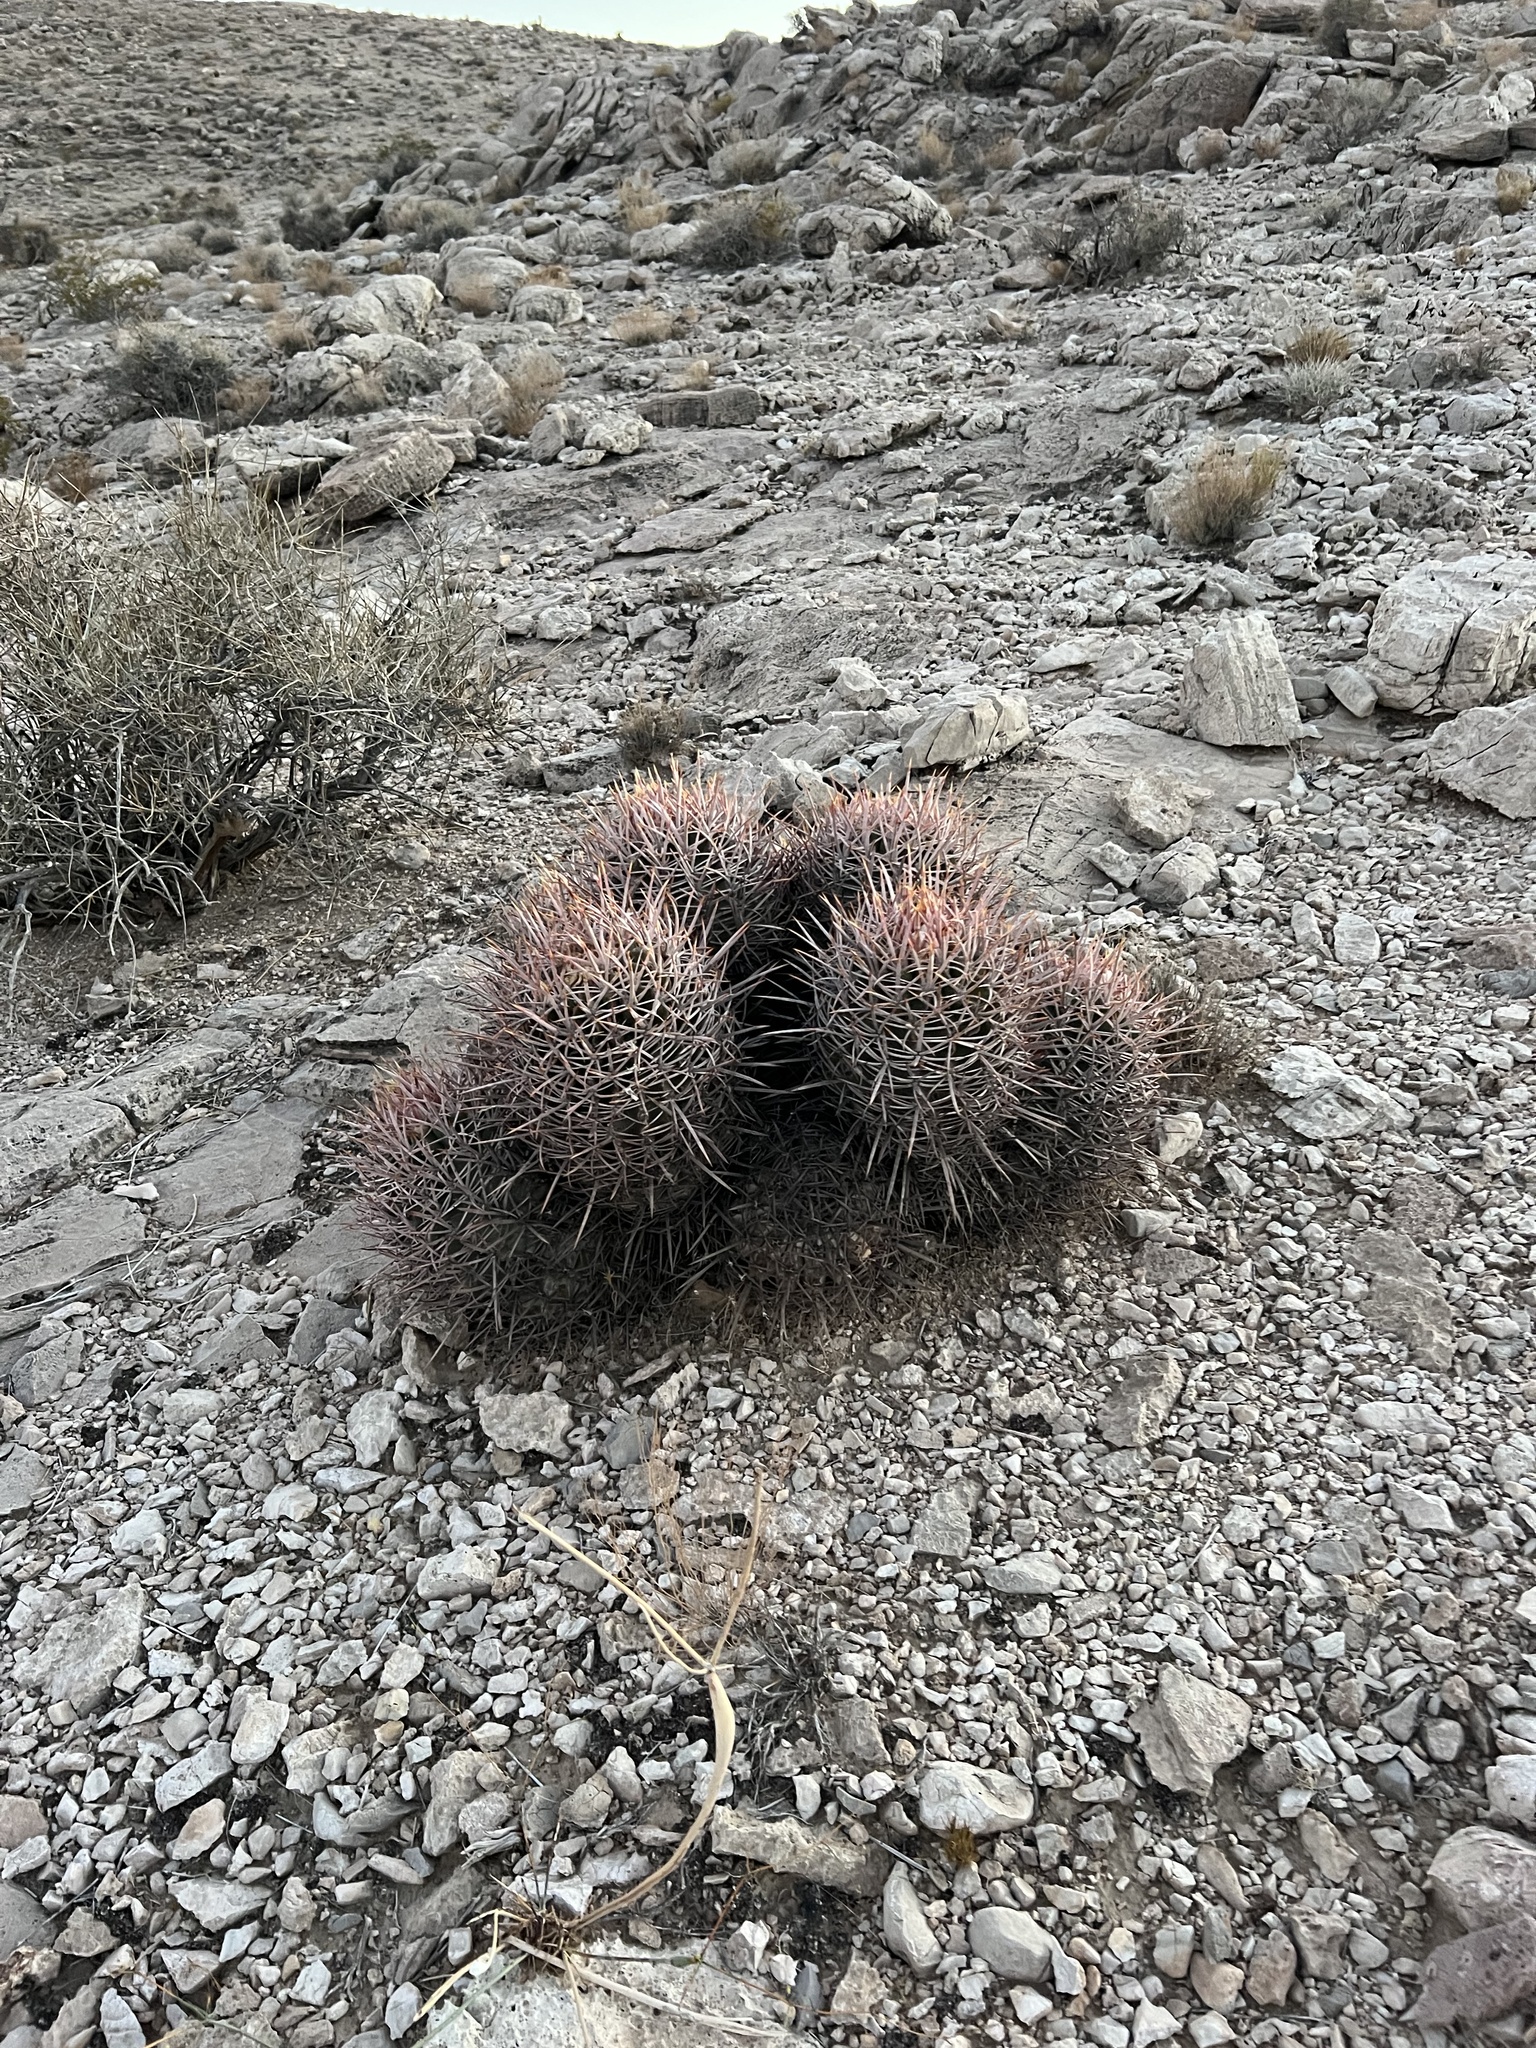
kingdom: Plantae
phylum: Tracheophyta
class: Magnoliopsida
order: Caryophyllales
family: Cactaceae
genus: Echinocactus
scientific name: Echinocactus polycephalus
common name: Cottontop cactus
